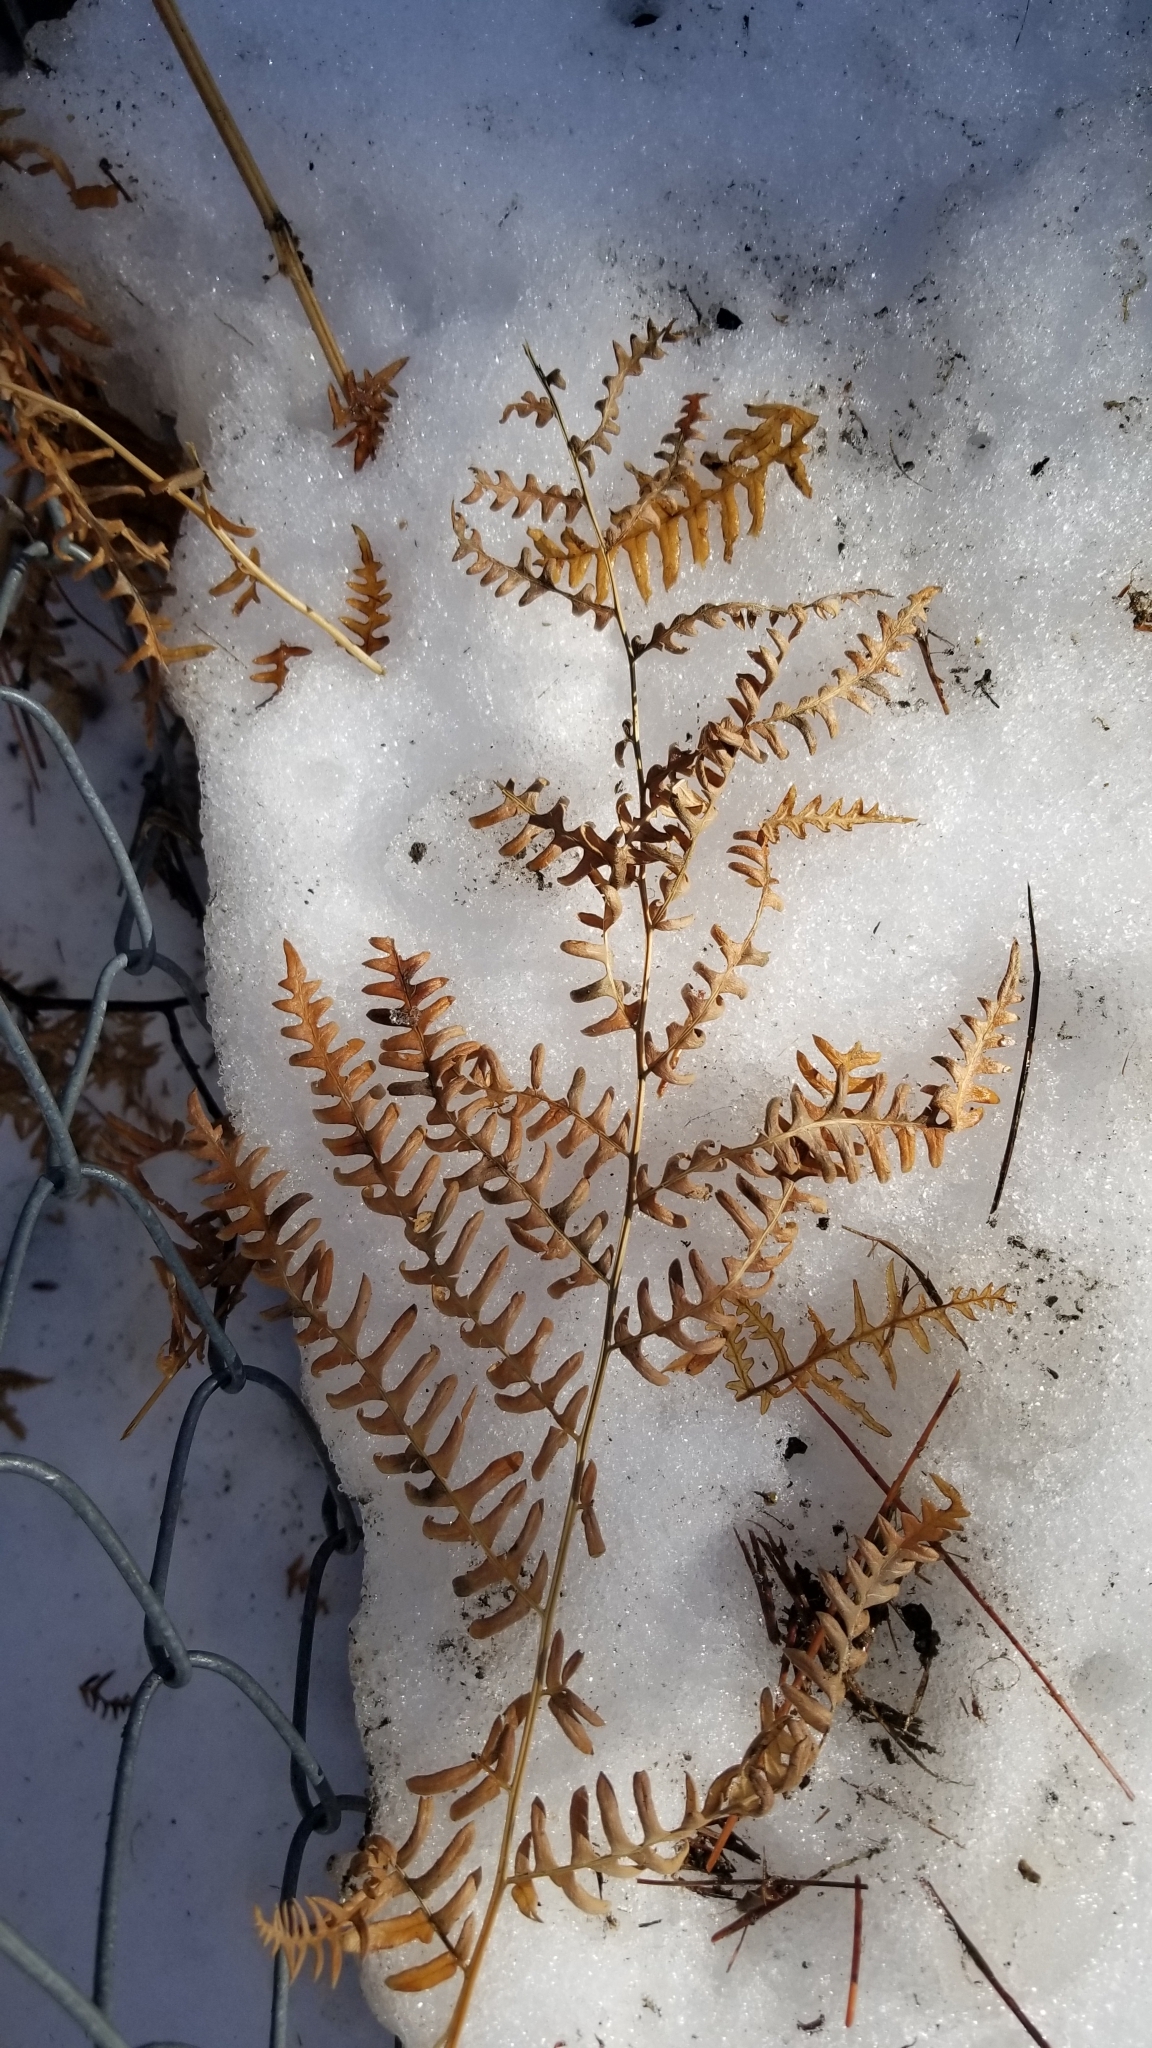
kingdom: Plantae
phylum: Tracheophyta
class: Polypodiopsida
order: Polypodiales
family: Dennstaedtiaceae
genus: Pteridium
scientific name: Pteridium aquilinum
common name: Bracken
